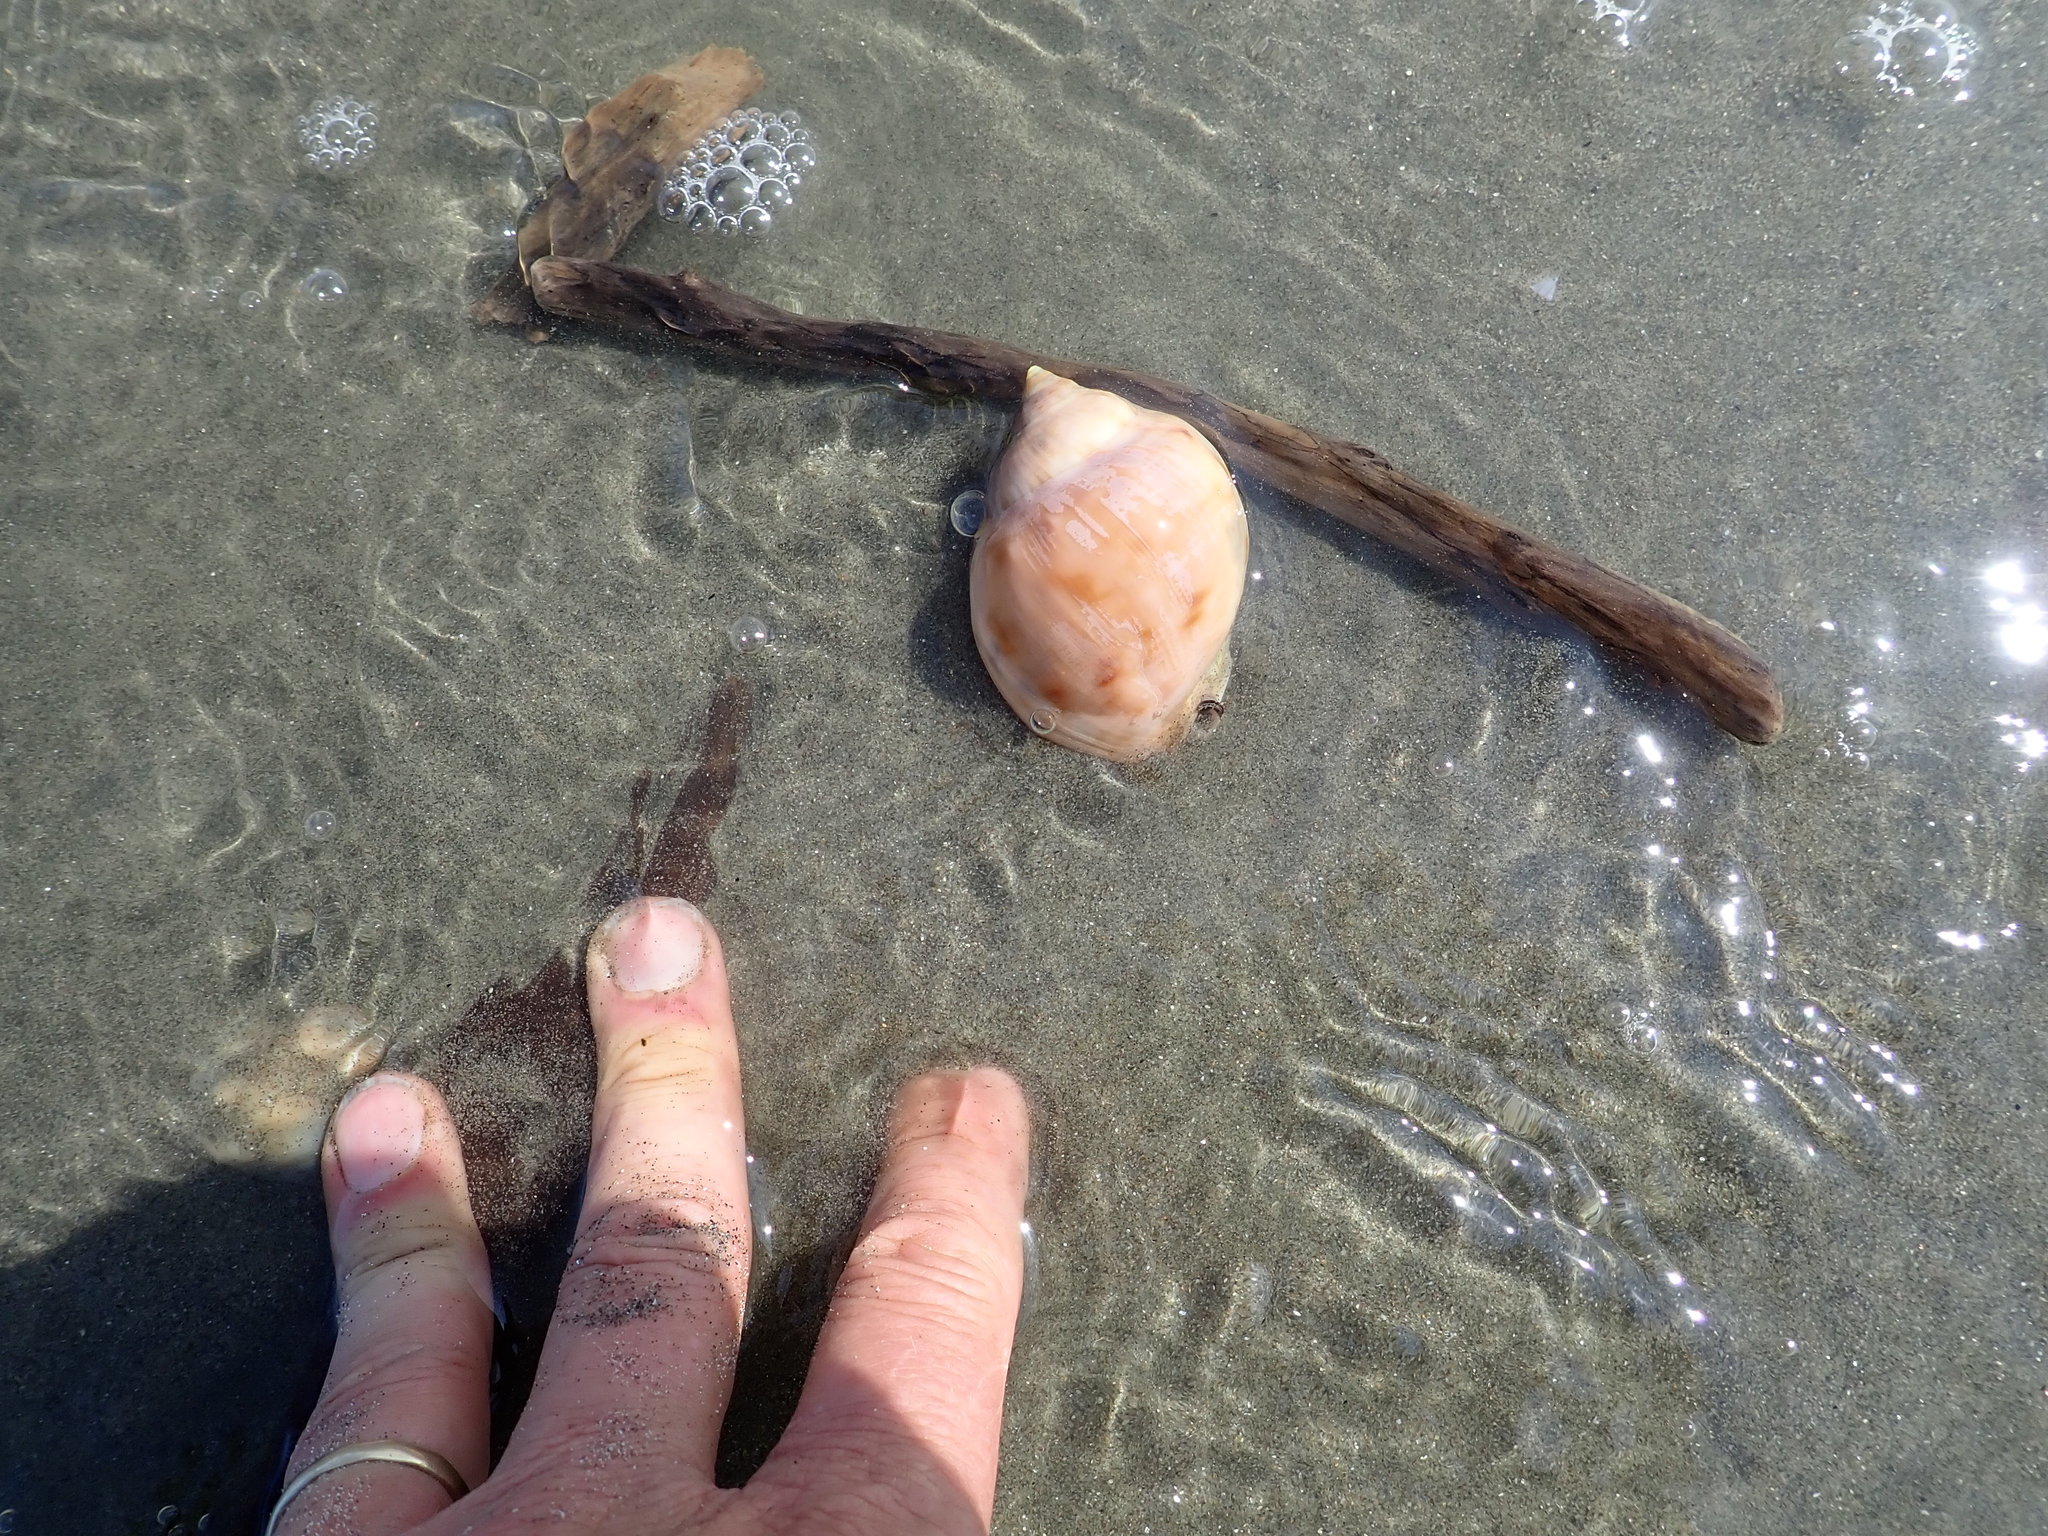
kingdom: Animalia
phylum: Mollusca
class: Gastropoda
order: Littorinimorpha
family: Cassidae
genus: Semicassis
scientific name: Semicassis pyrum
